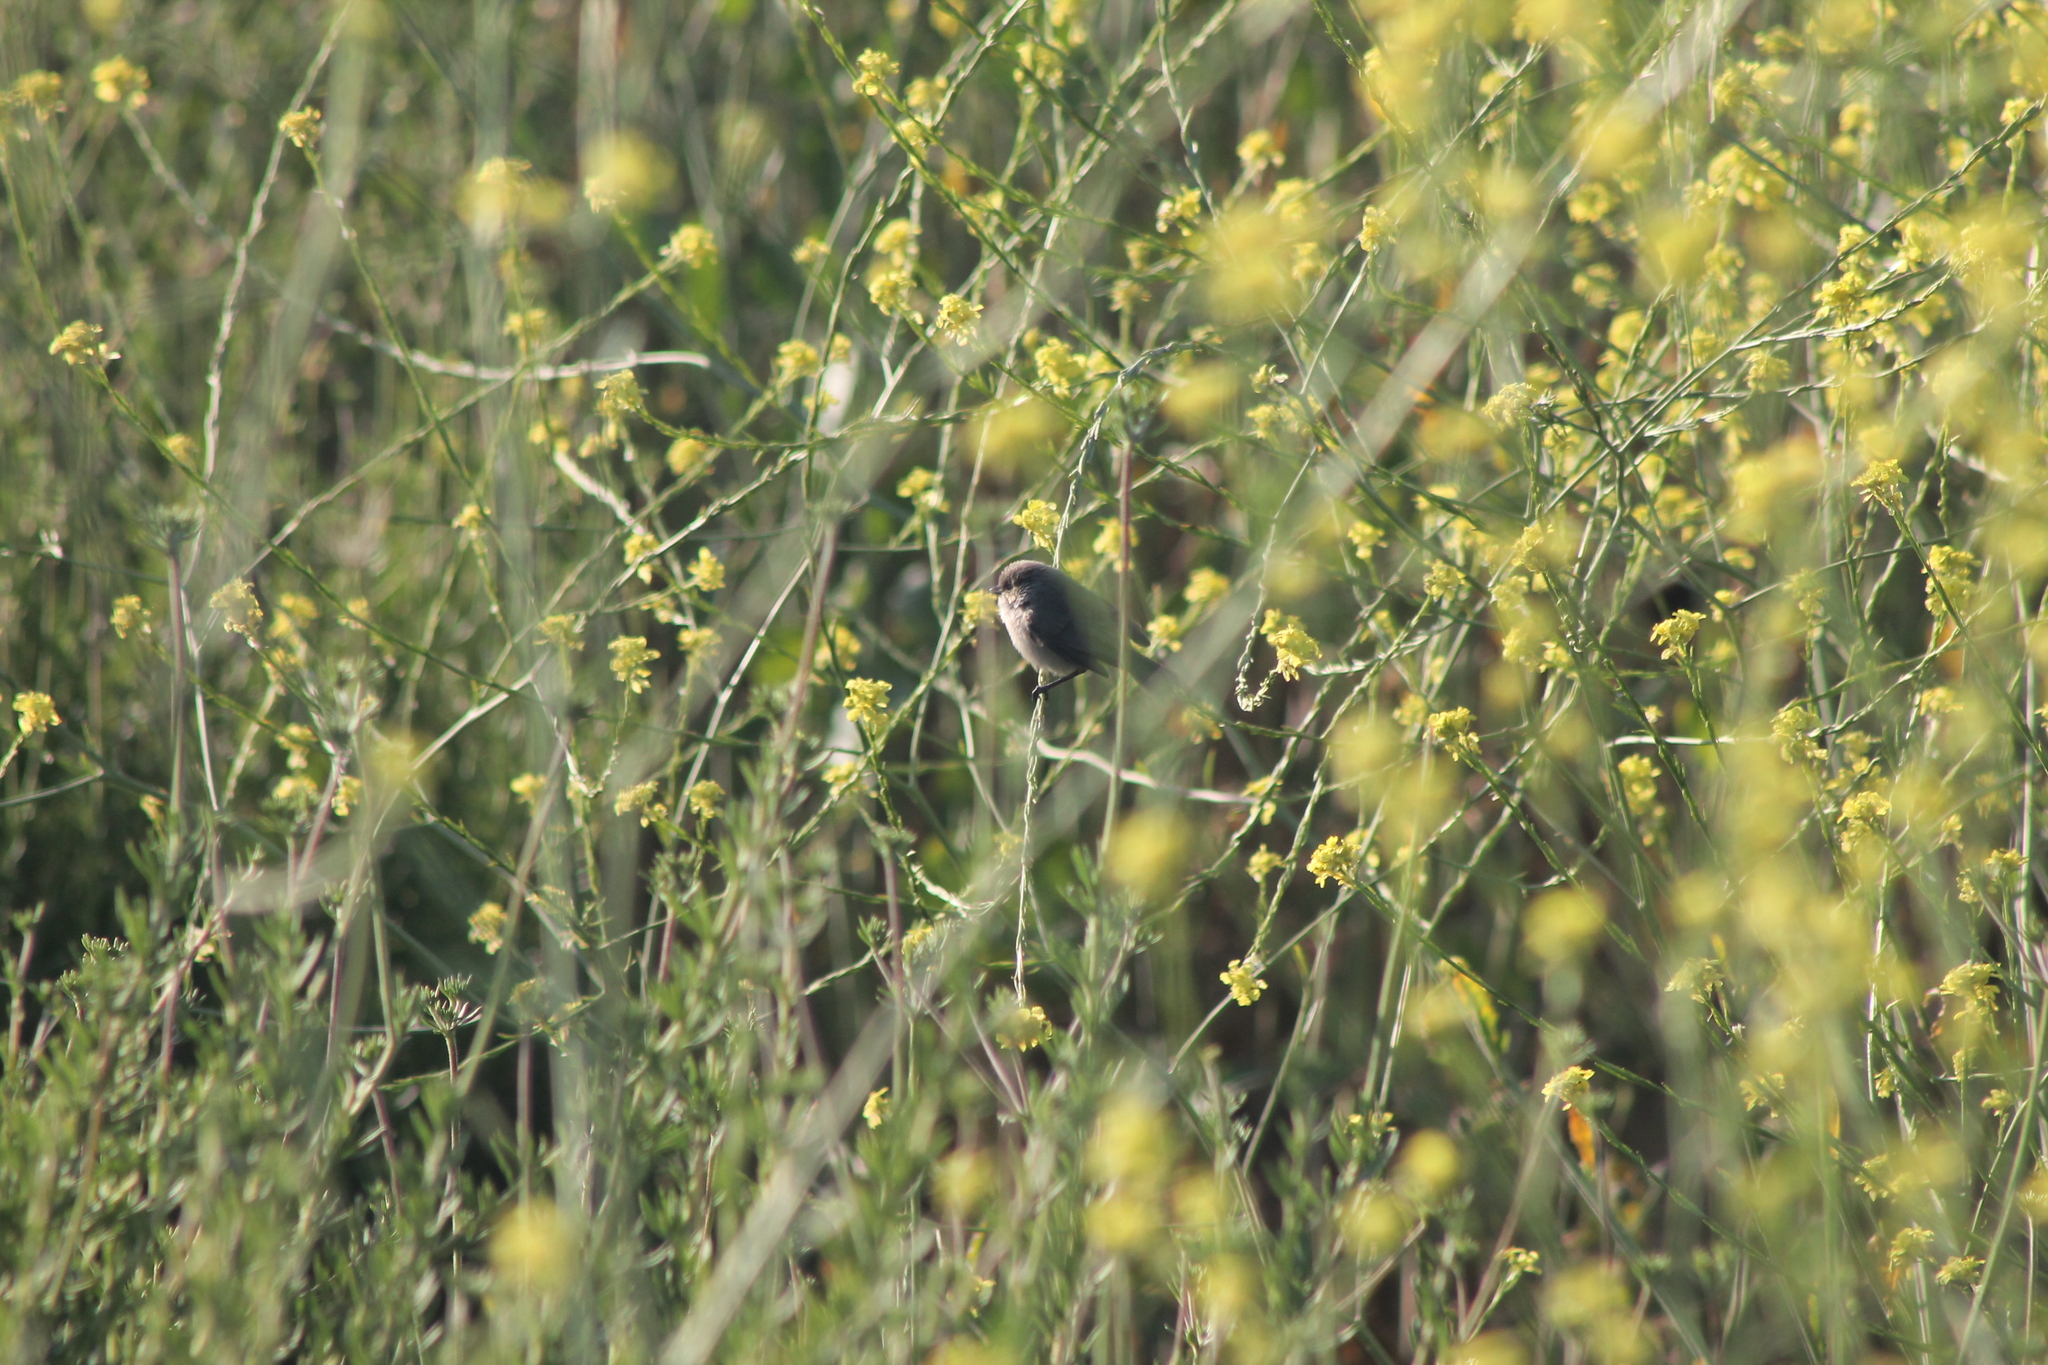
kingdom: Animalia
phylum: Chordata
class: Aves
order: Passeriformes
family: Aegithalidae
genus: Psaltriparus
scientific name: Psaltriparus minimus
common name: American bushtit
